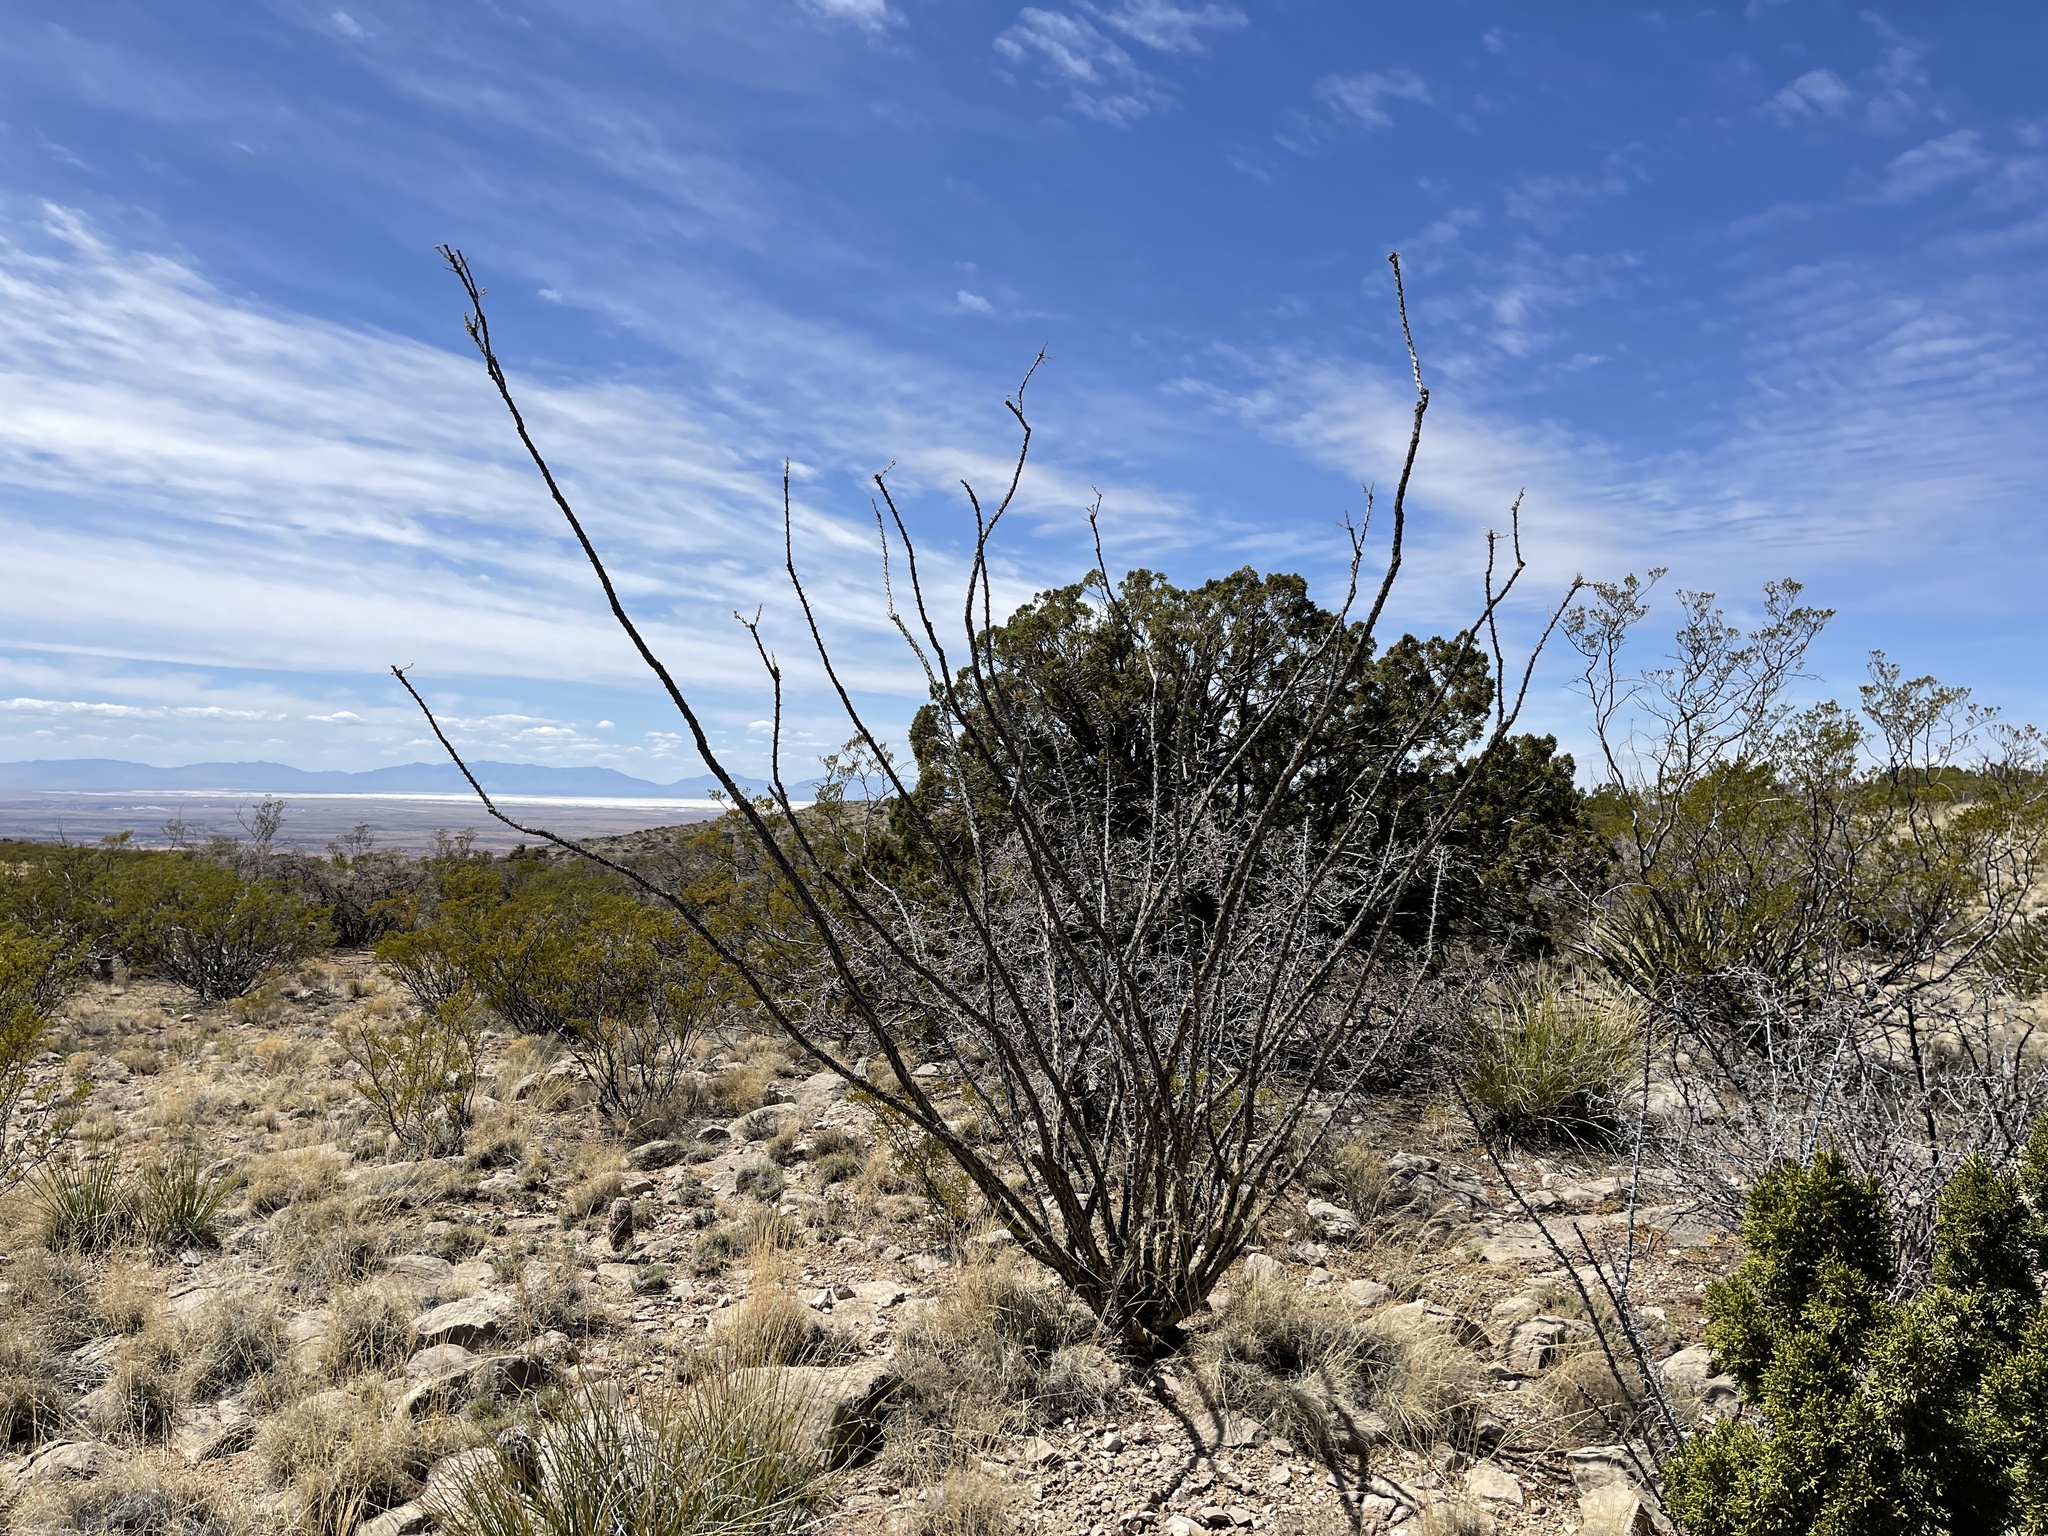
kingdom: Plantae
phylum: Tracheophyta
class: Magnoliopsida
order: Ericales
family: Fouquieriaceae
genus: Fouquieria
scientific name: Fouquieria splendens
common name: Vine-cactus
